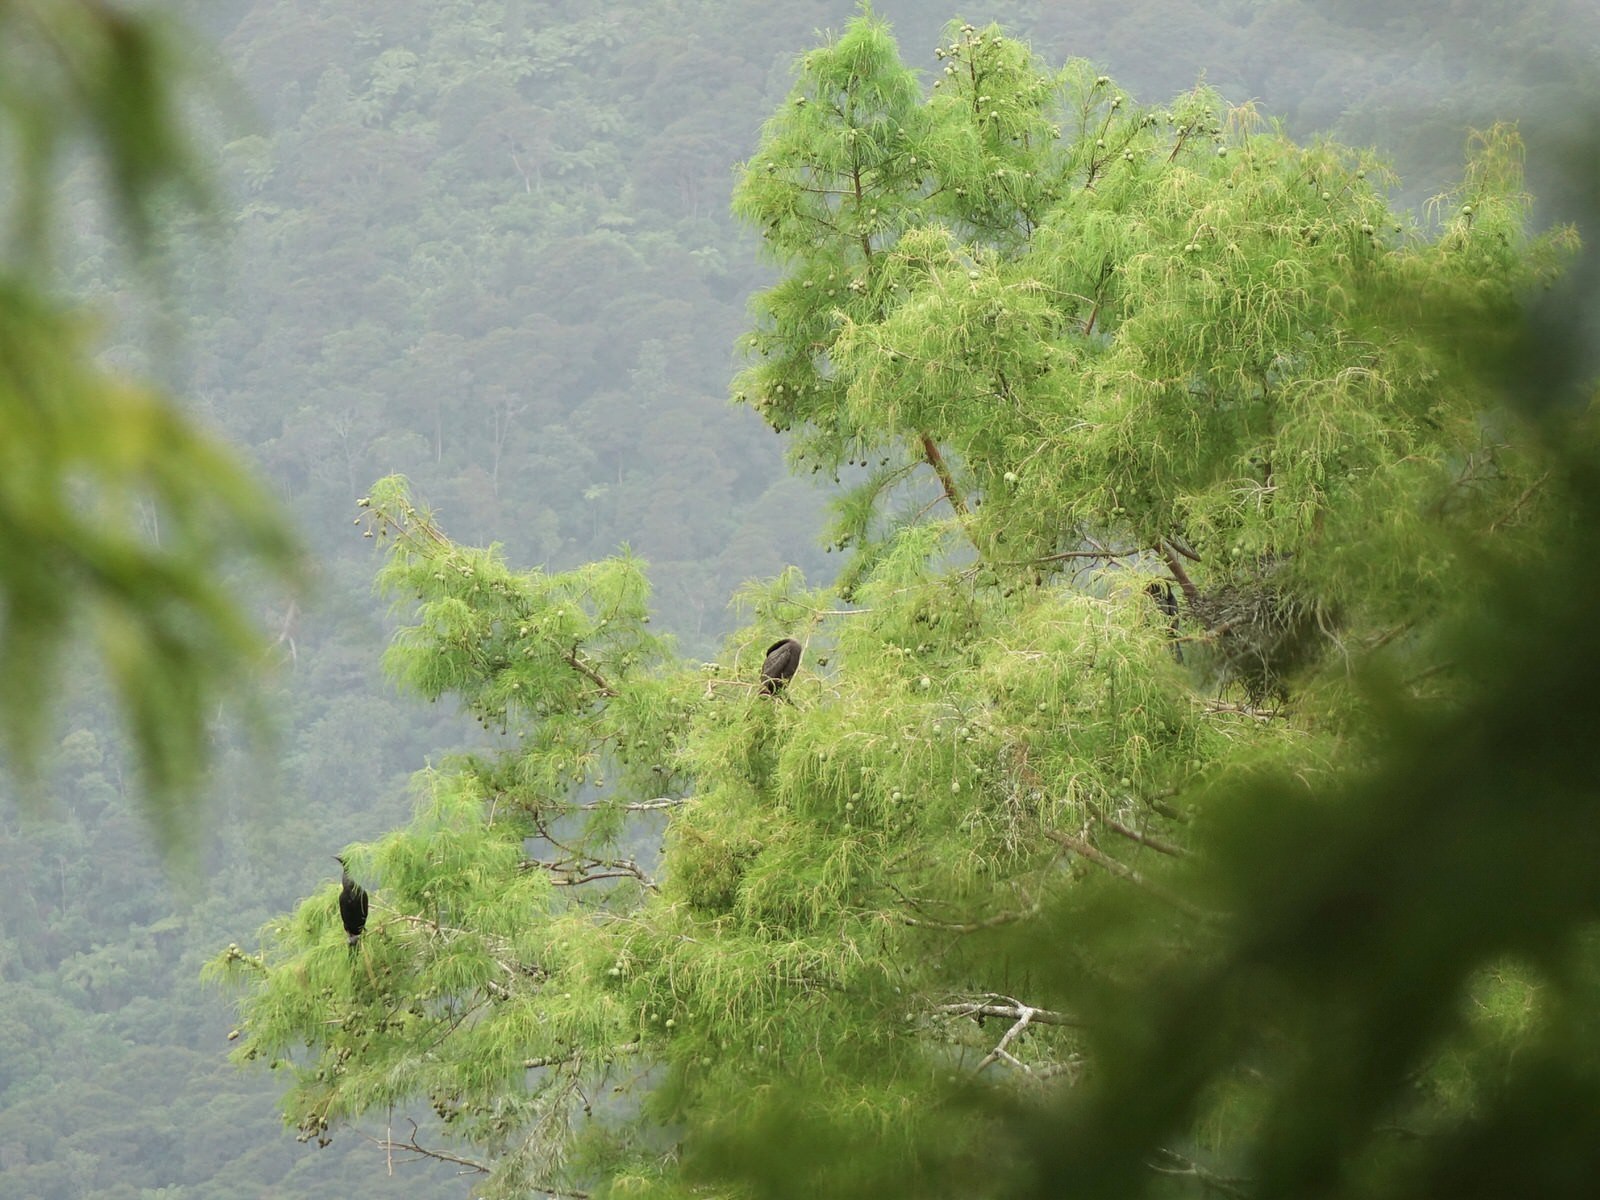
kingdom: Animalia
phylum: Chordata
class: Aves
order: Suliformes
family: Phalacrocoracidae
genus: Phalacrocorax
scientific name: Phalacrocorax sulcirostris
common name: Little black cormorant
